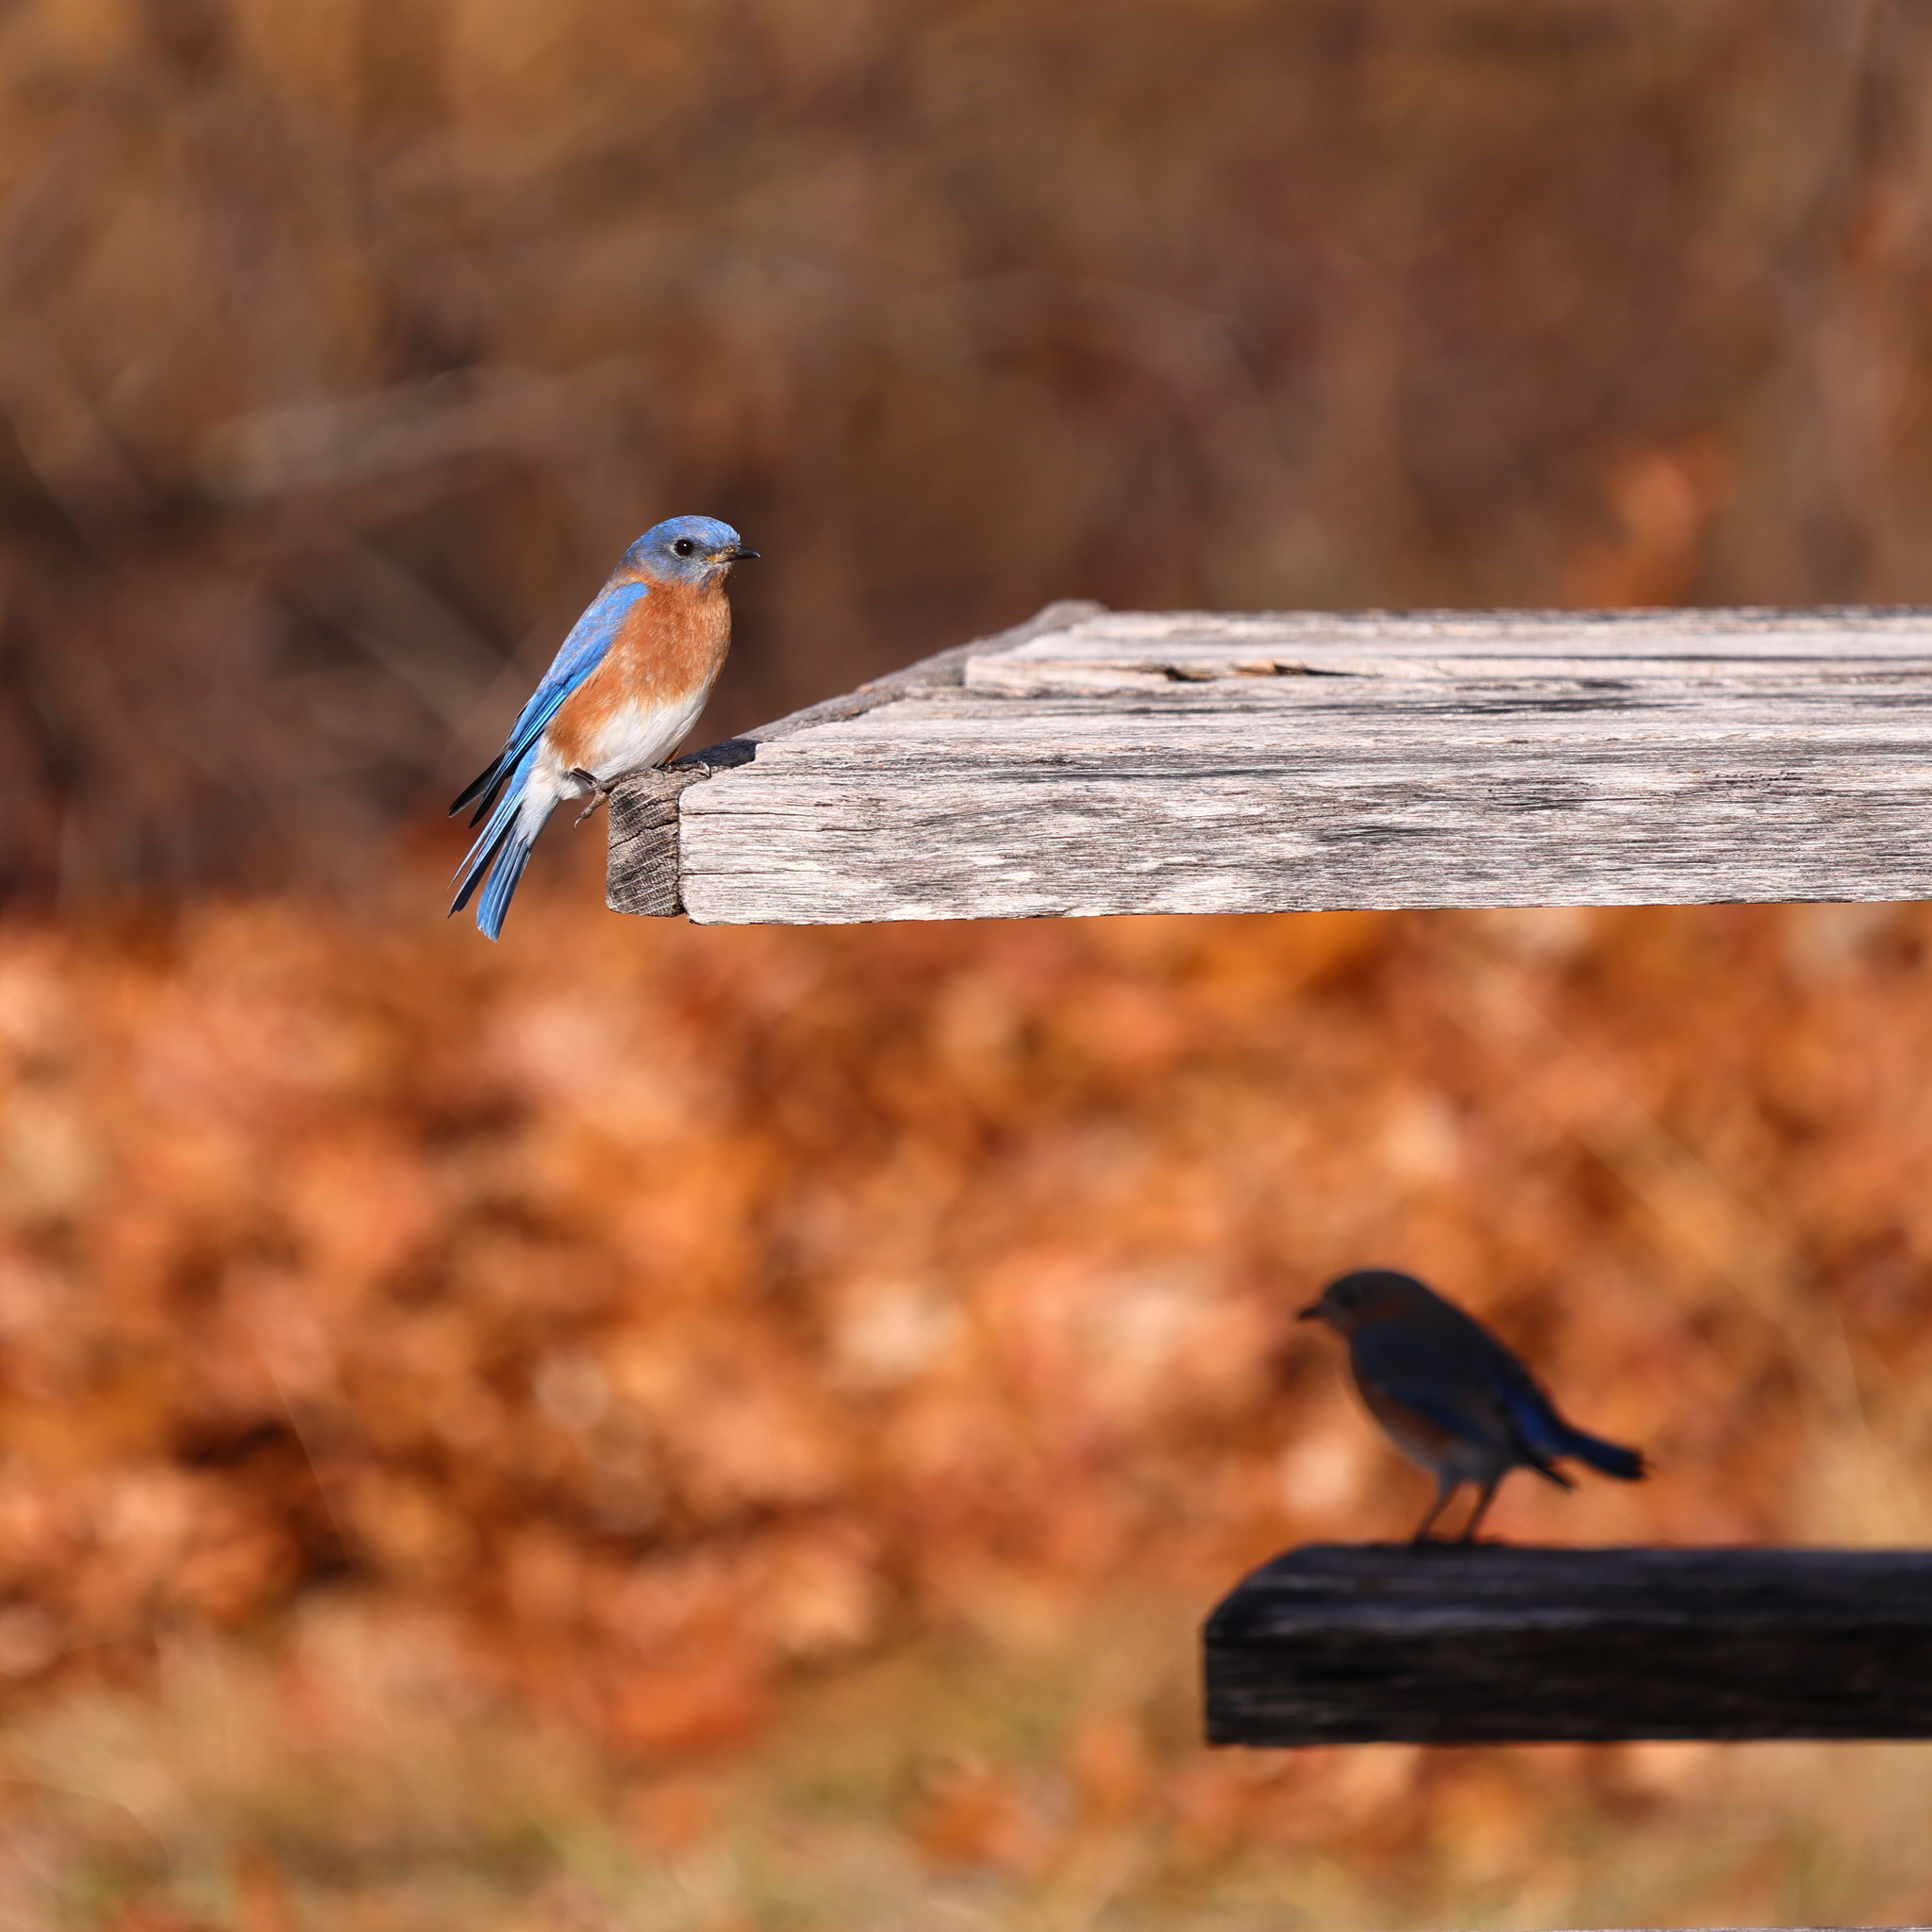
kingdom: Animalia
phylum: Chordata
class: Aves
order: Passeriformes
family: Turdidae
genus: Sialia
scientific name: Sialia sialis
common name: Eastern bluebird
